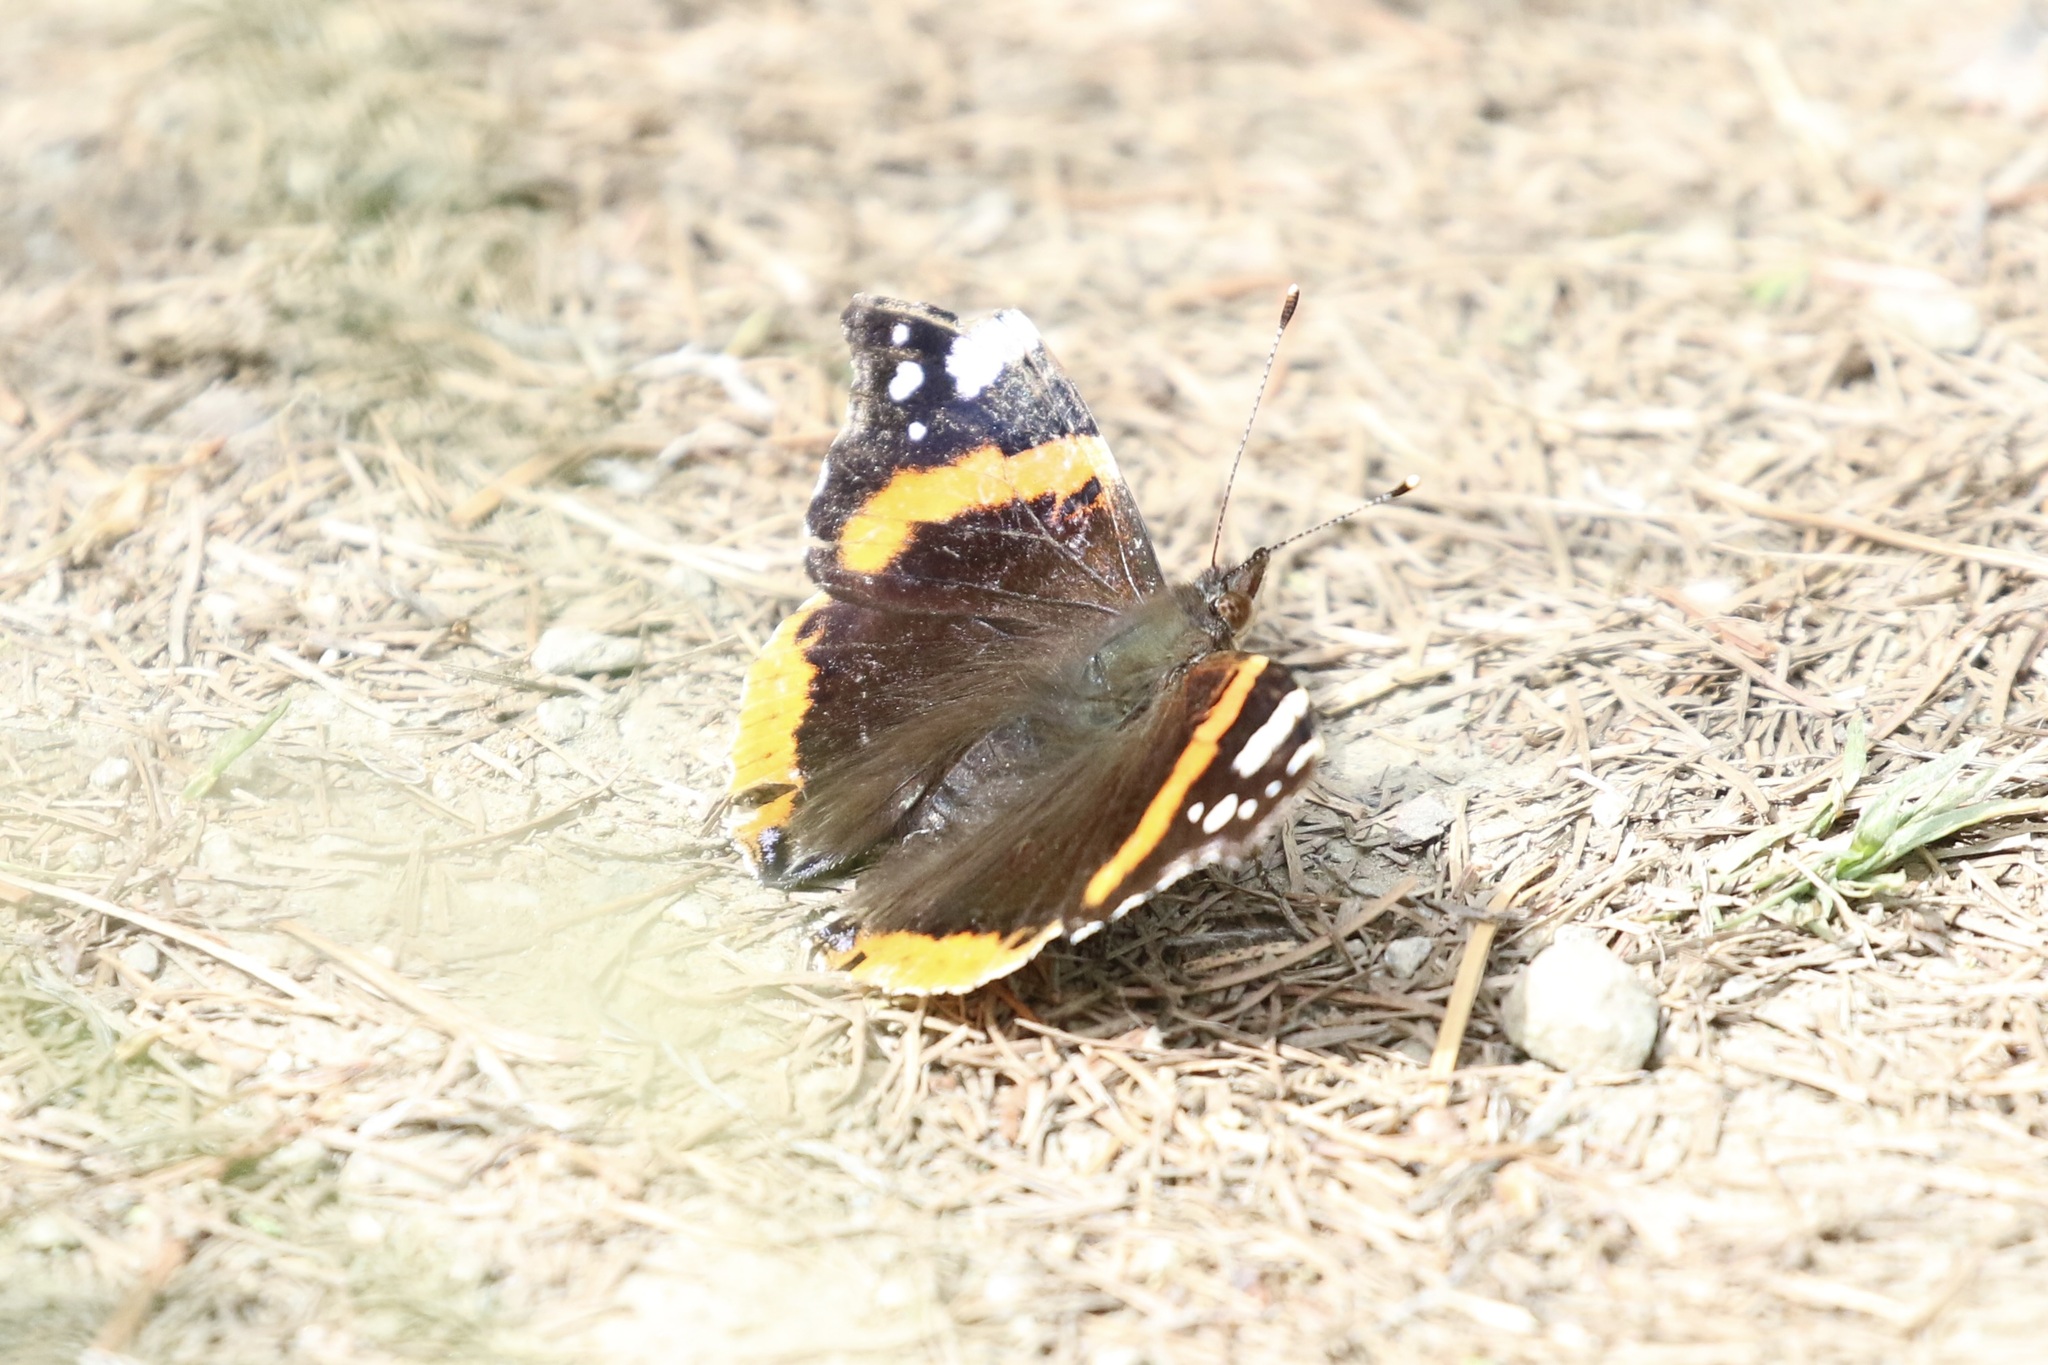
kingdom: Animalia
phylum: Arthropoda
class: Insecta
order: Lepidoptera
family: Nymphalidae
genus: Vanessa
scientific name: Vanessa atalanta
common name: Red admiral
